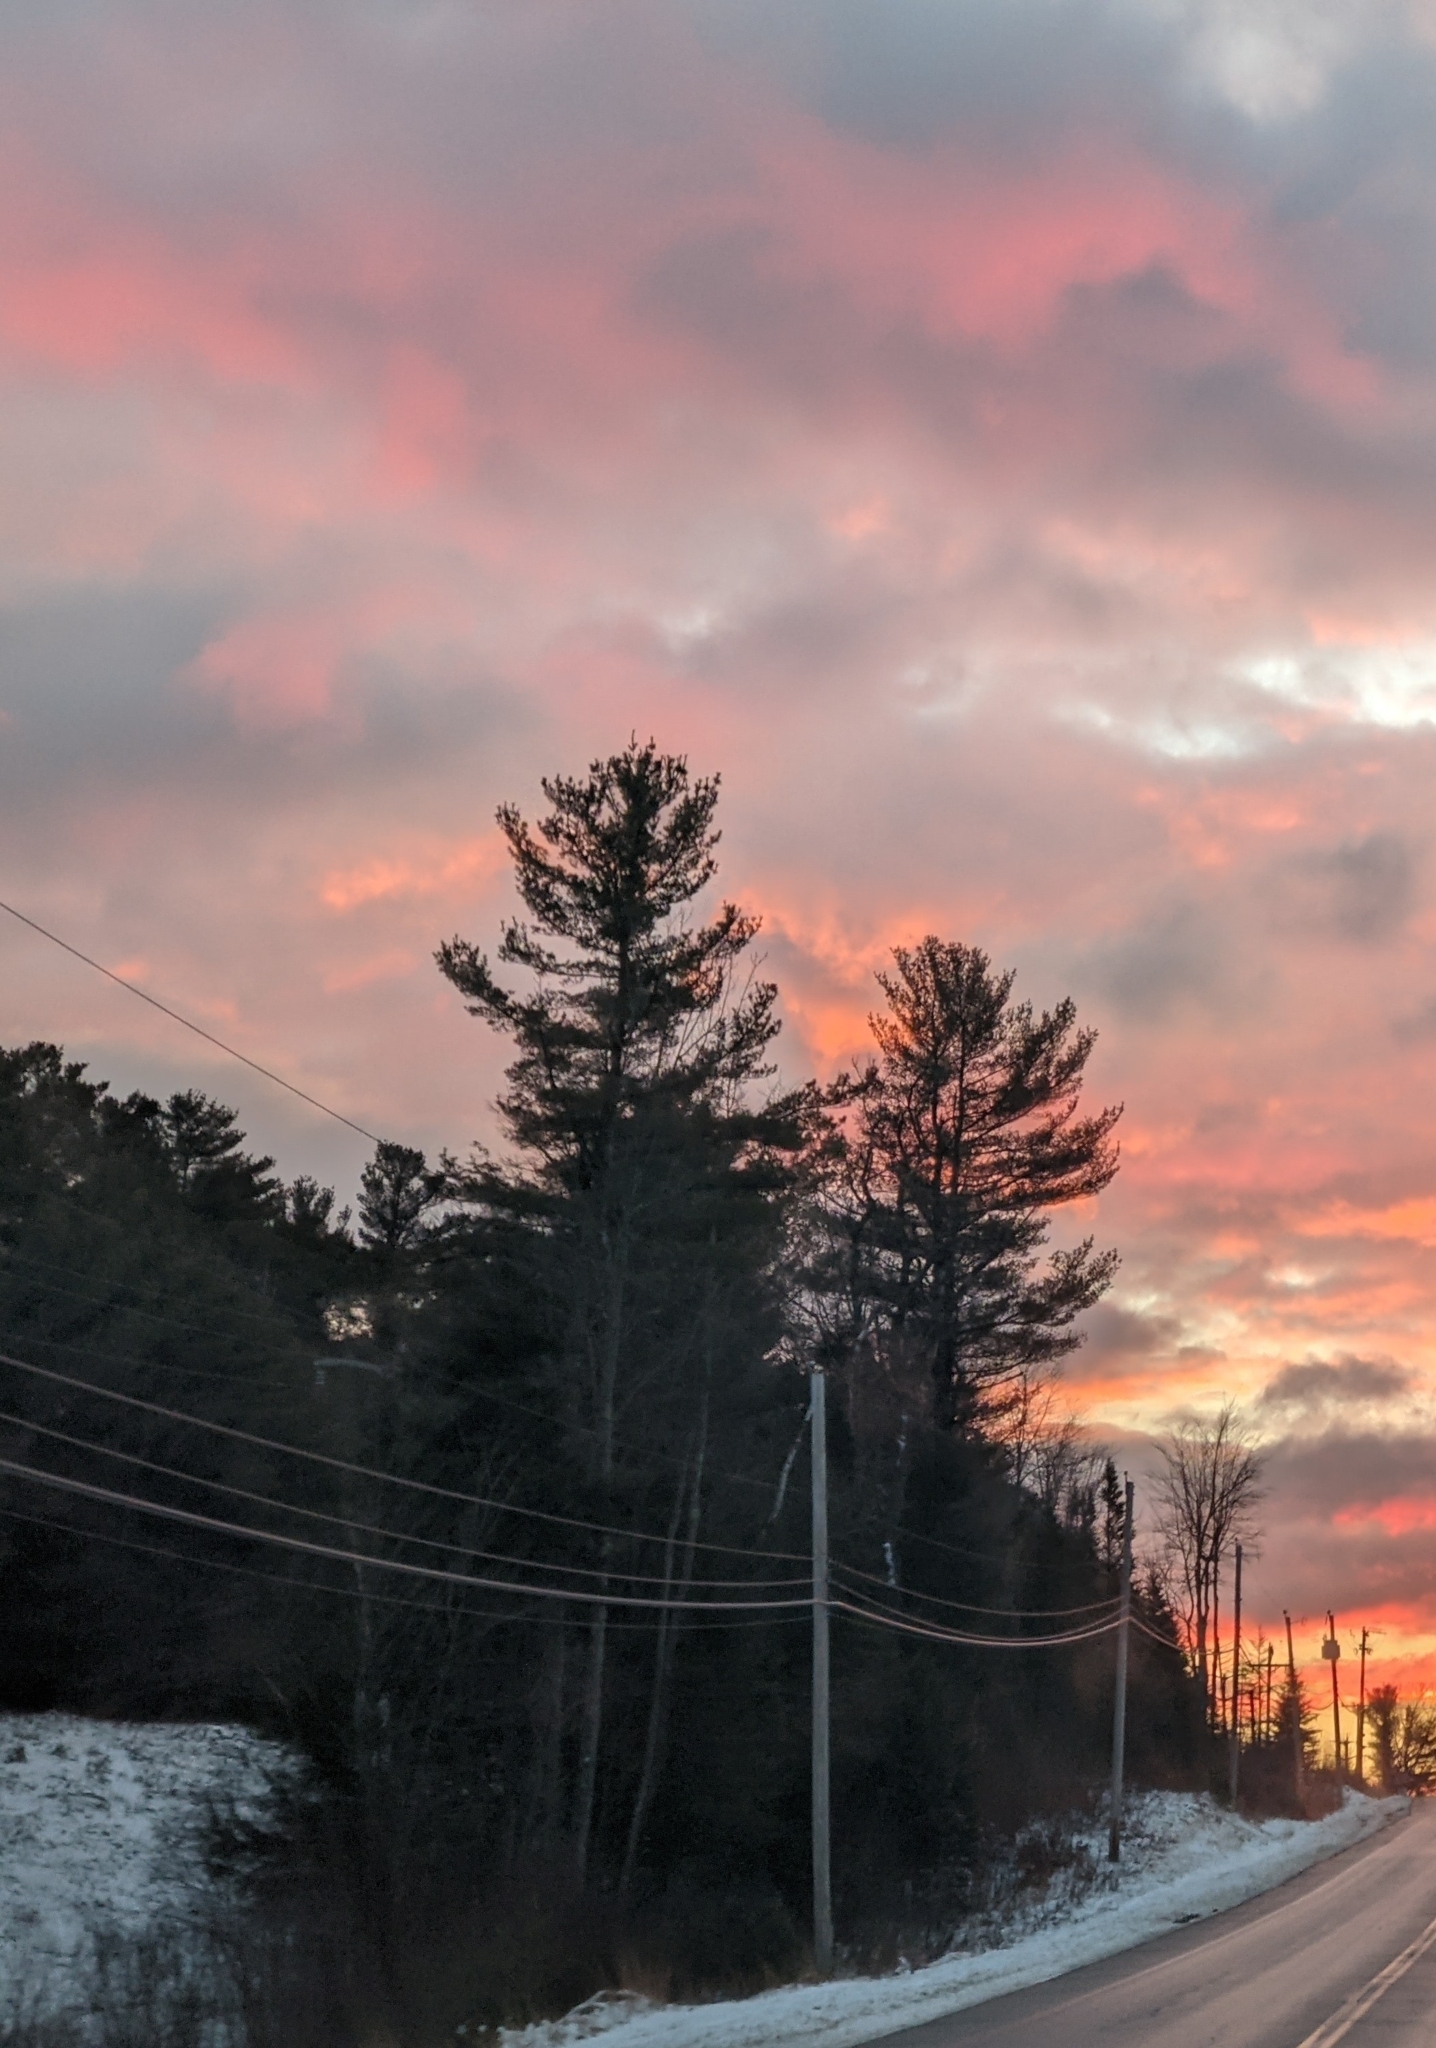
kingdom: Plantae
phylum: Tracheophyta
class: Pinopsida
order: Pinales
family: Pinaceae
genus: Pinus
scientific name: Pinus strobus
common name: Weymouth pine
